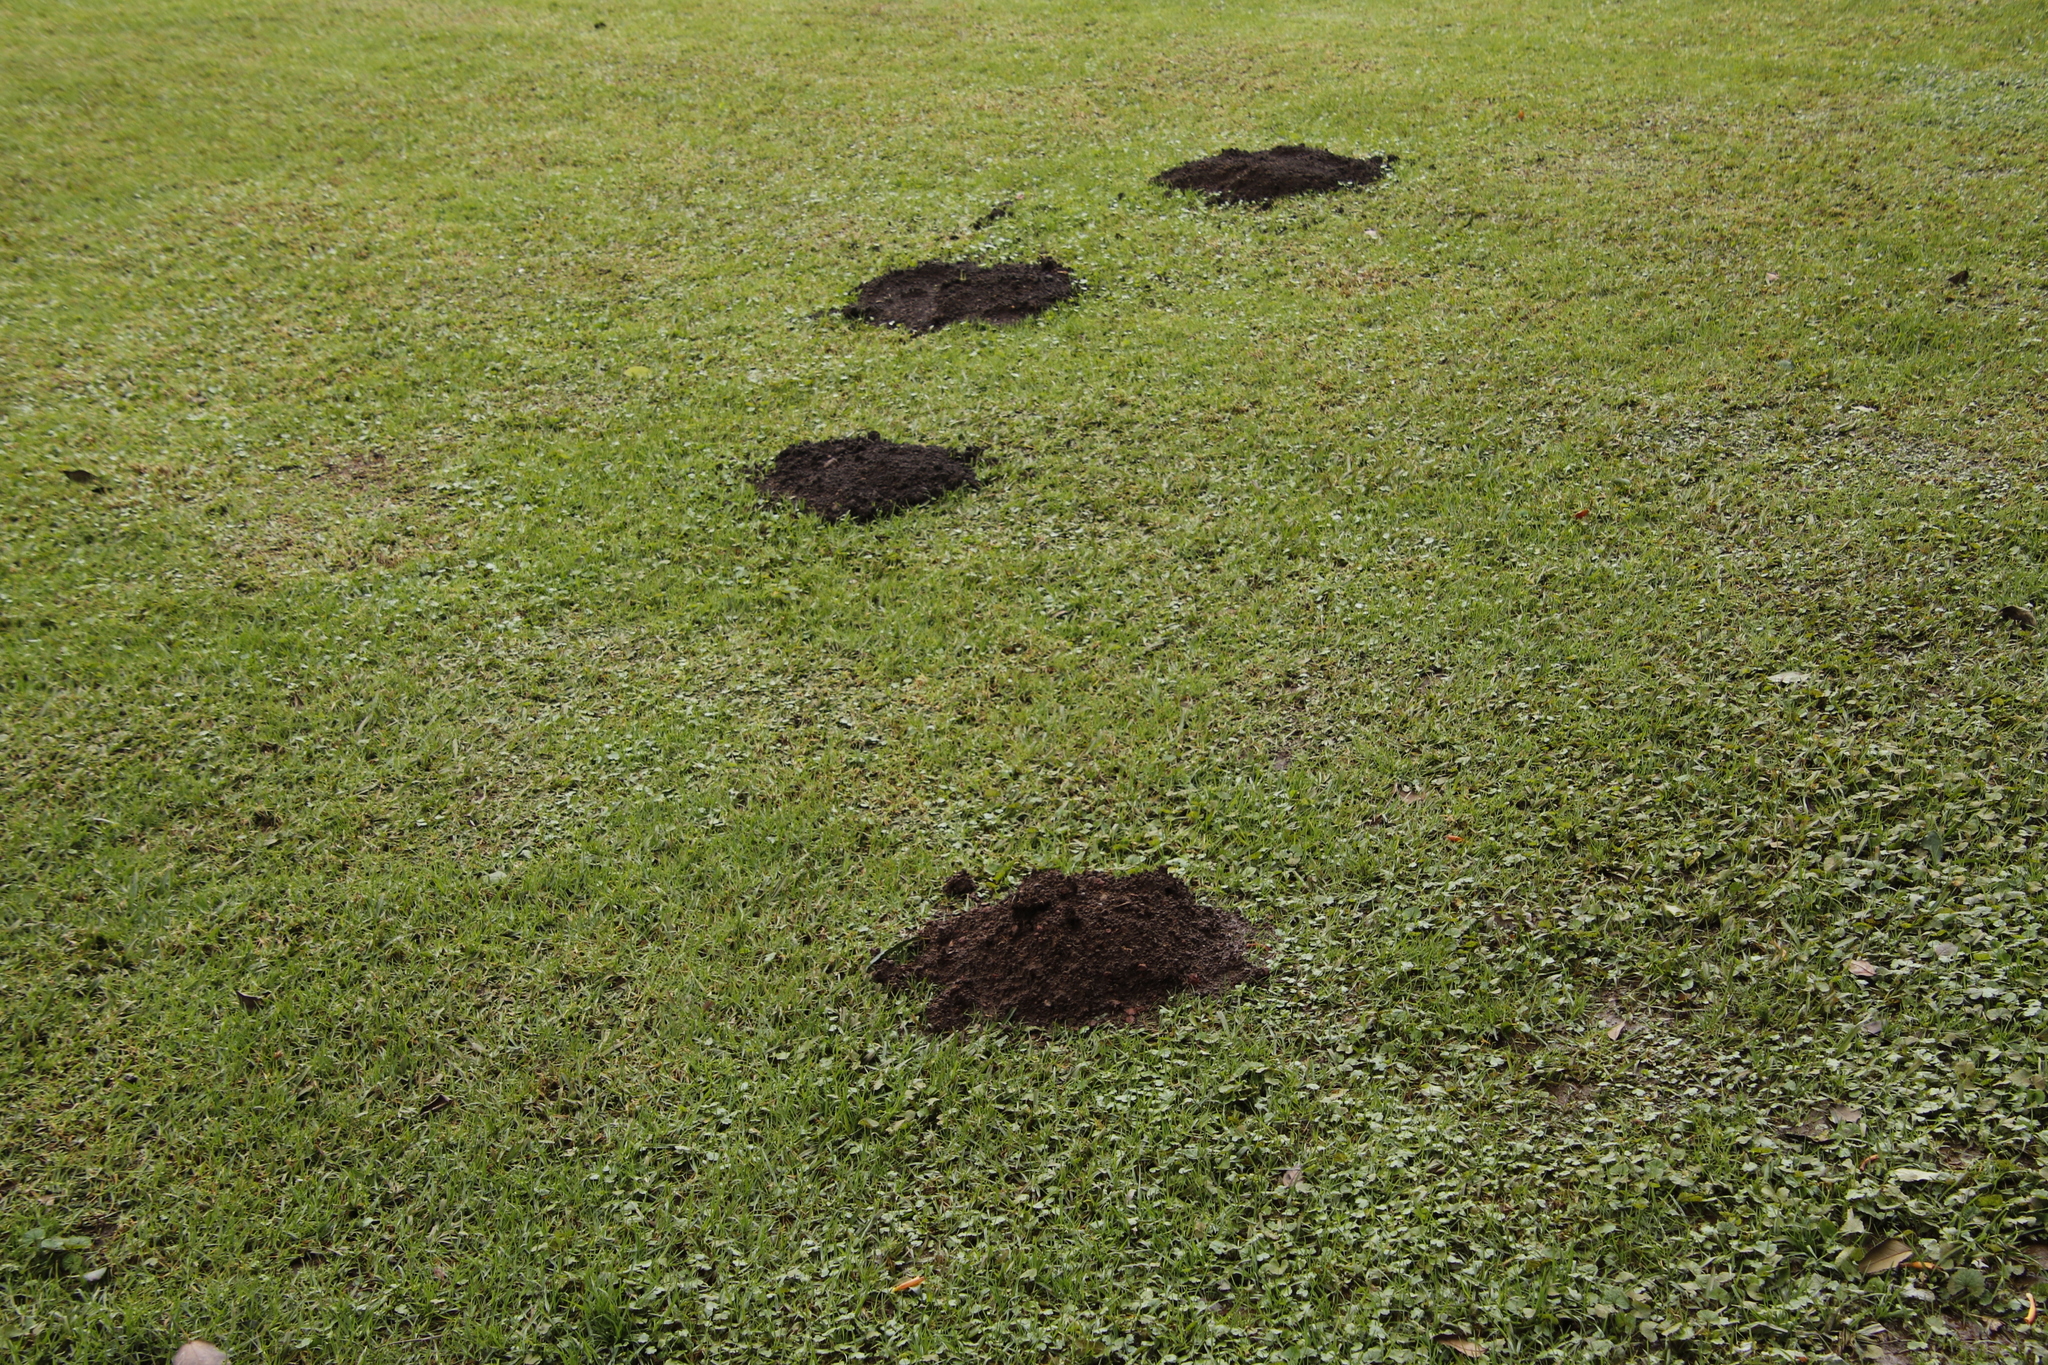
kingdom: Animalia
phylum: Chordata
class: Mammalia
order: Rodentia
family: Bathyergidae
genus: Cryptomys
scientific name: Cryptomys natalensis
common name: Natal mole-rat
